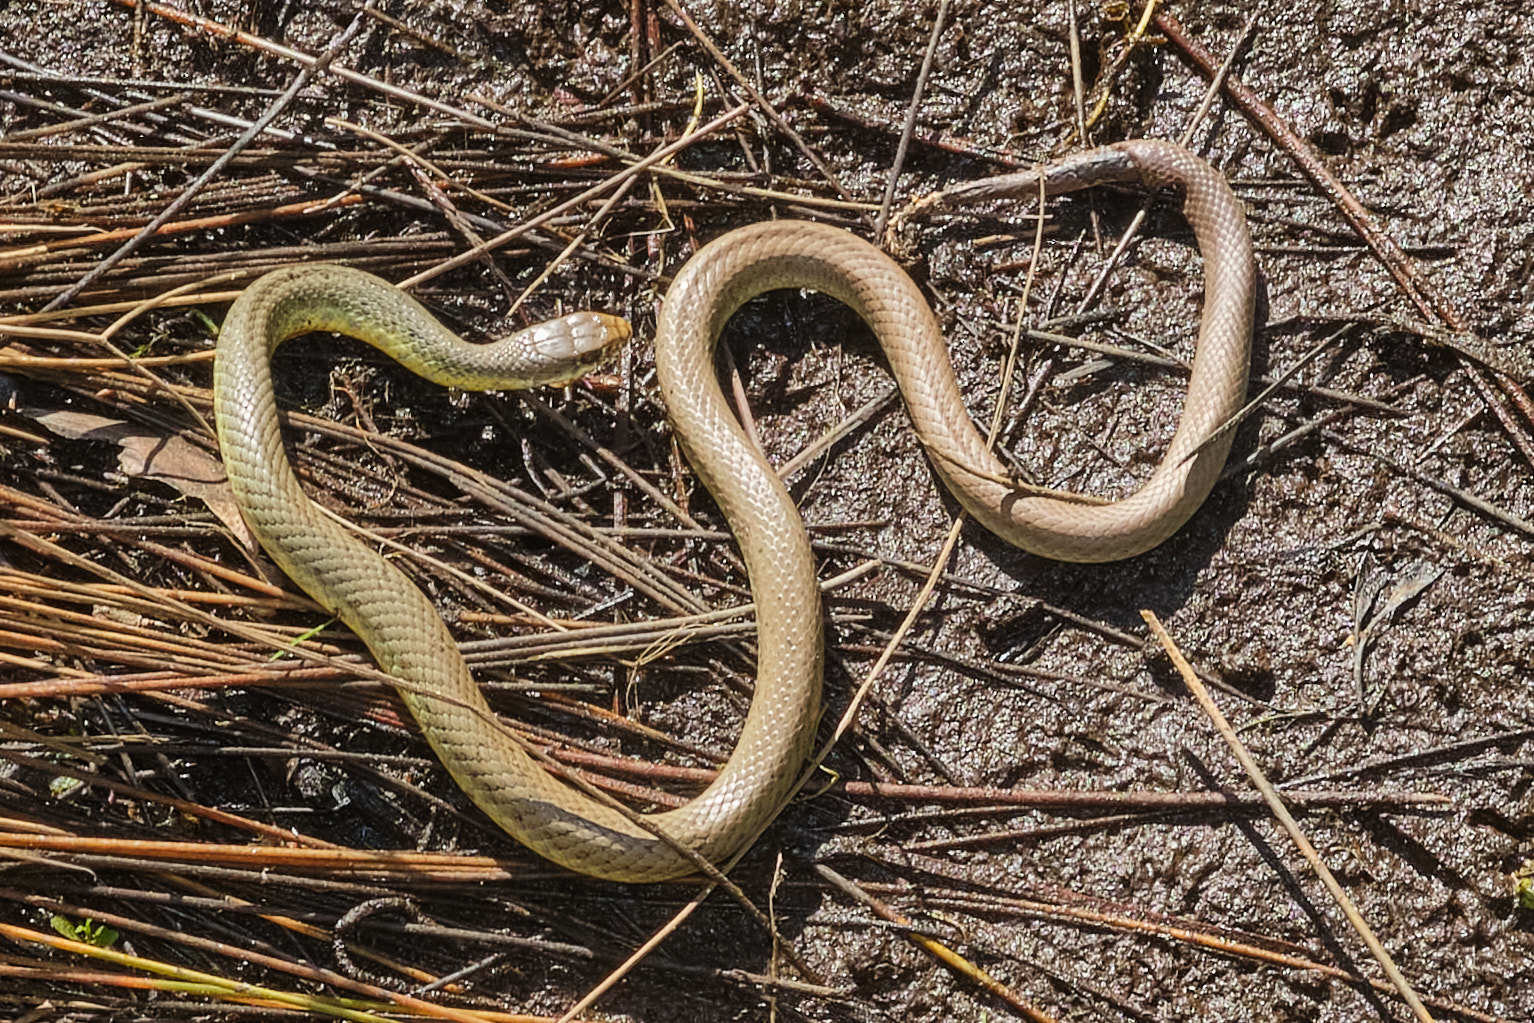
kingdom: Animalia
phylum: Chordata
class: Squamata
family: Colubridae
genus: Coluber
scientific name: Coluber constrictor
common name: Eastern racer
